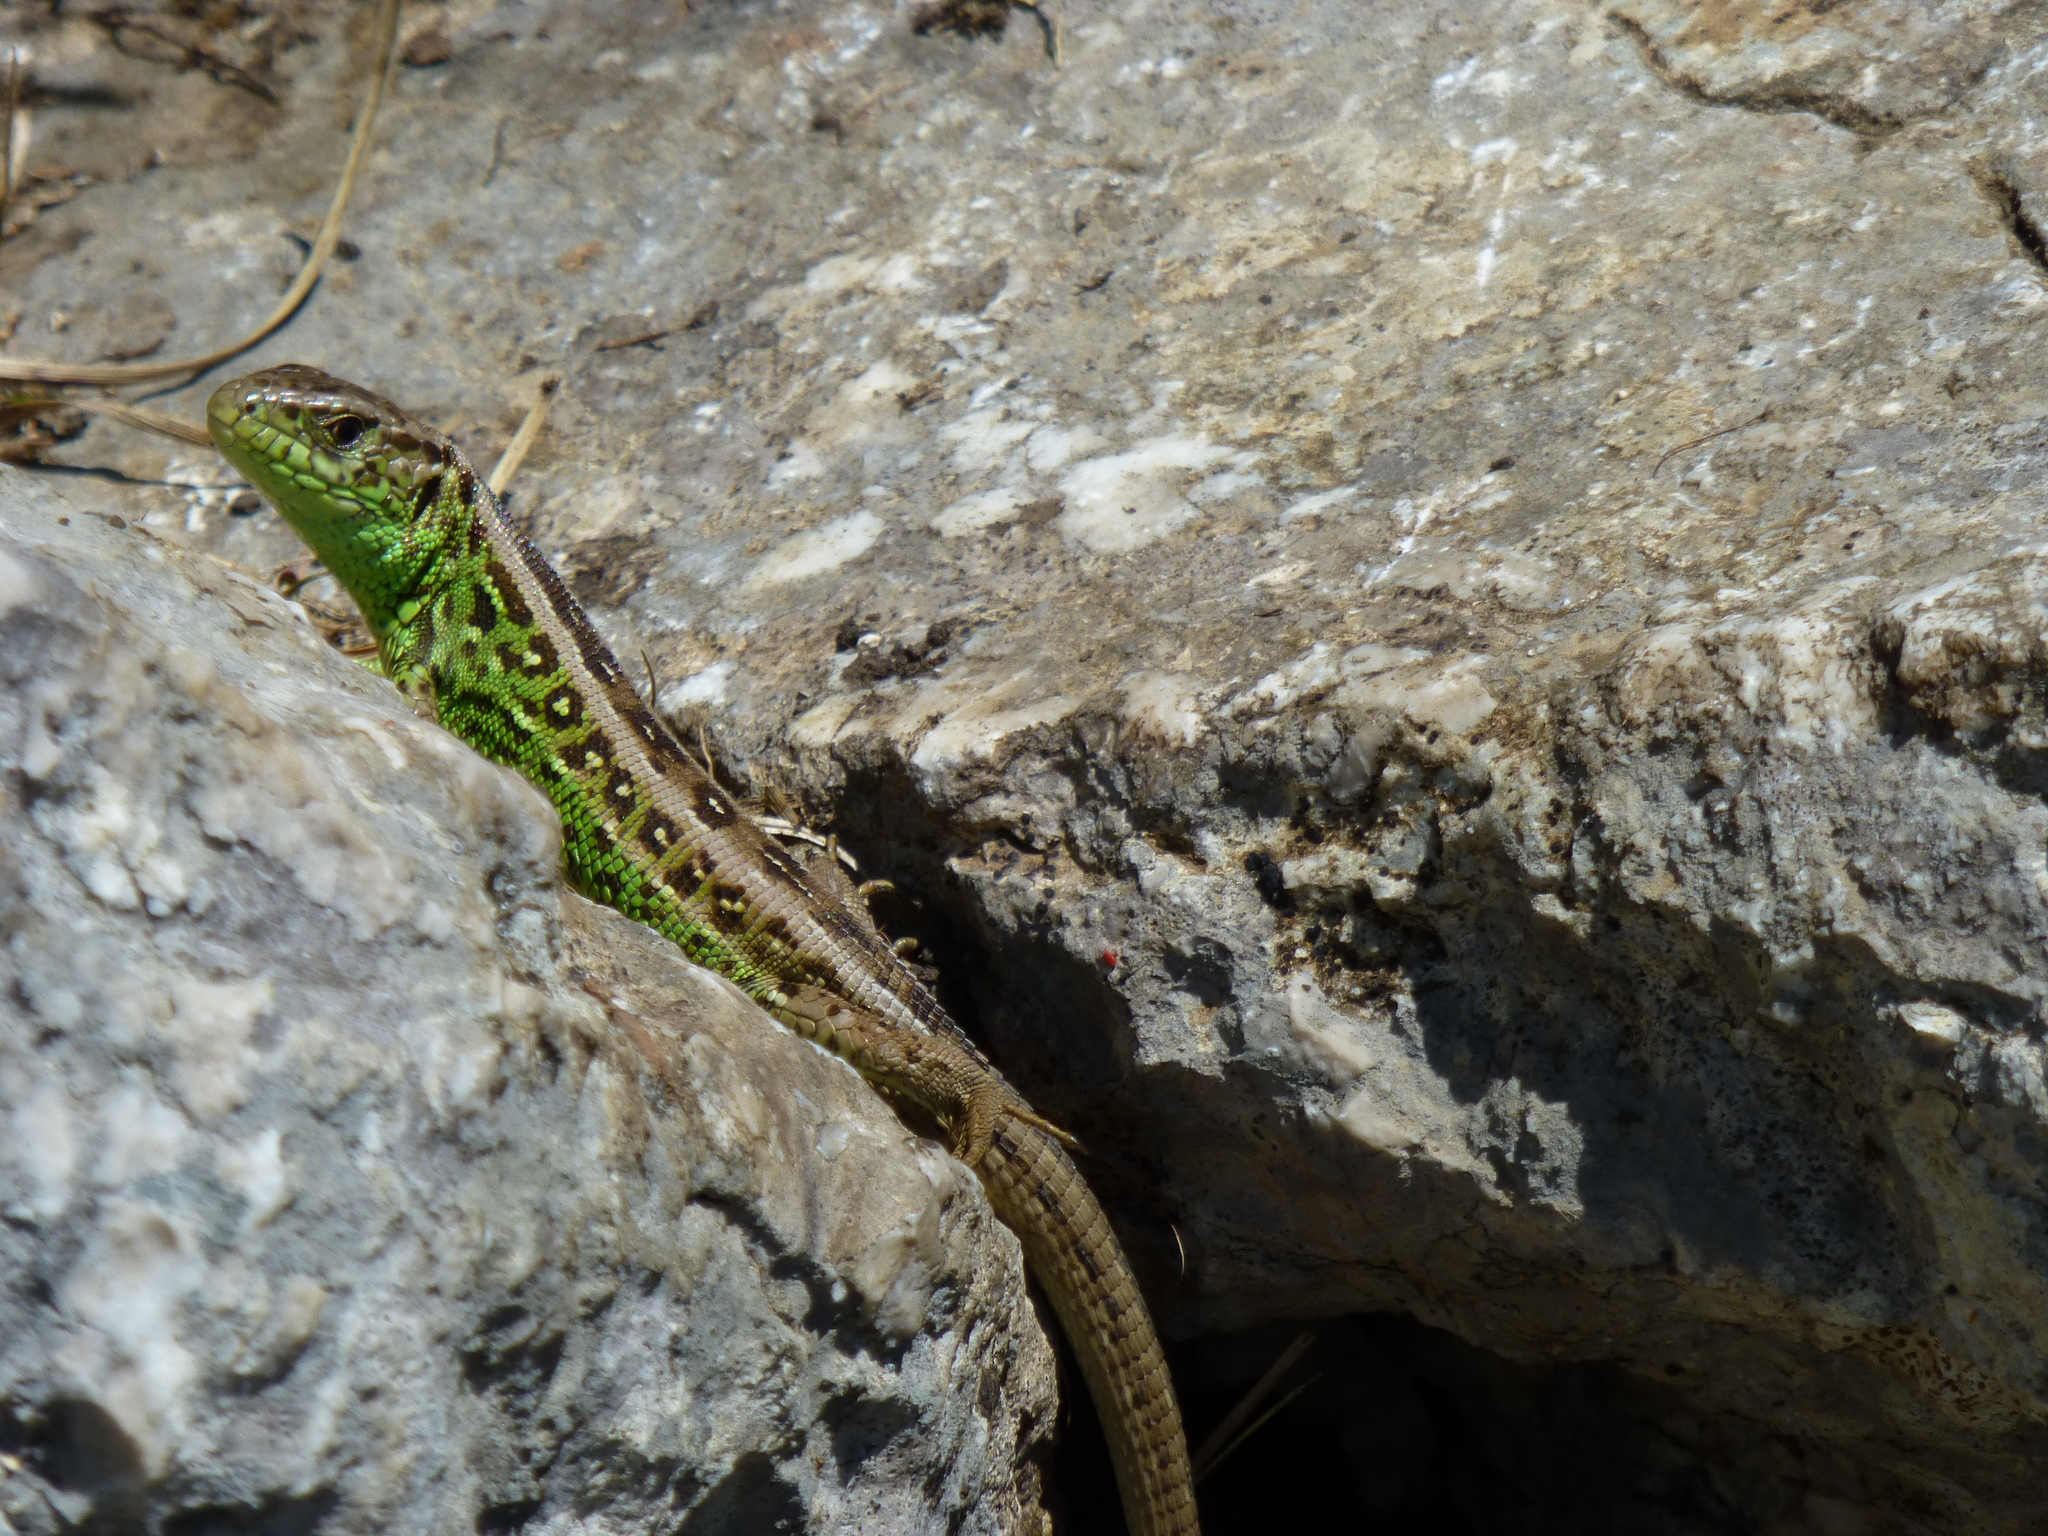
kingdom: Animalia
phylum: Chordata
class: Squamata
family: Lacertidae
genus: Lacerta
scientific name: Lacerta agilis
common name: Sand lizard
